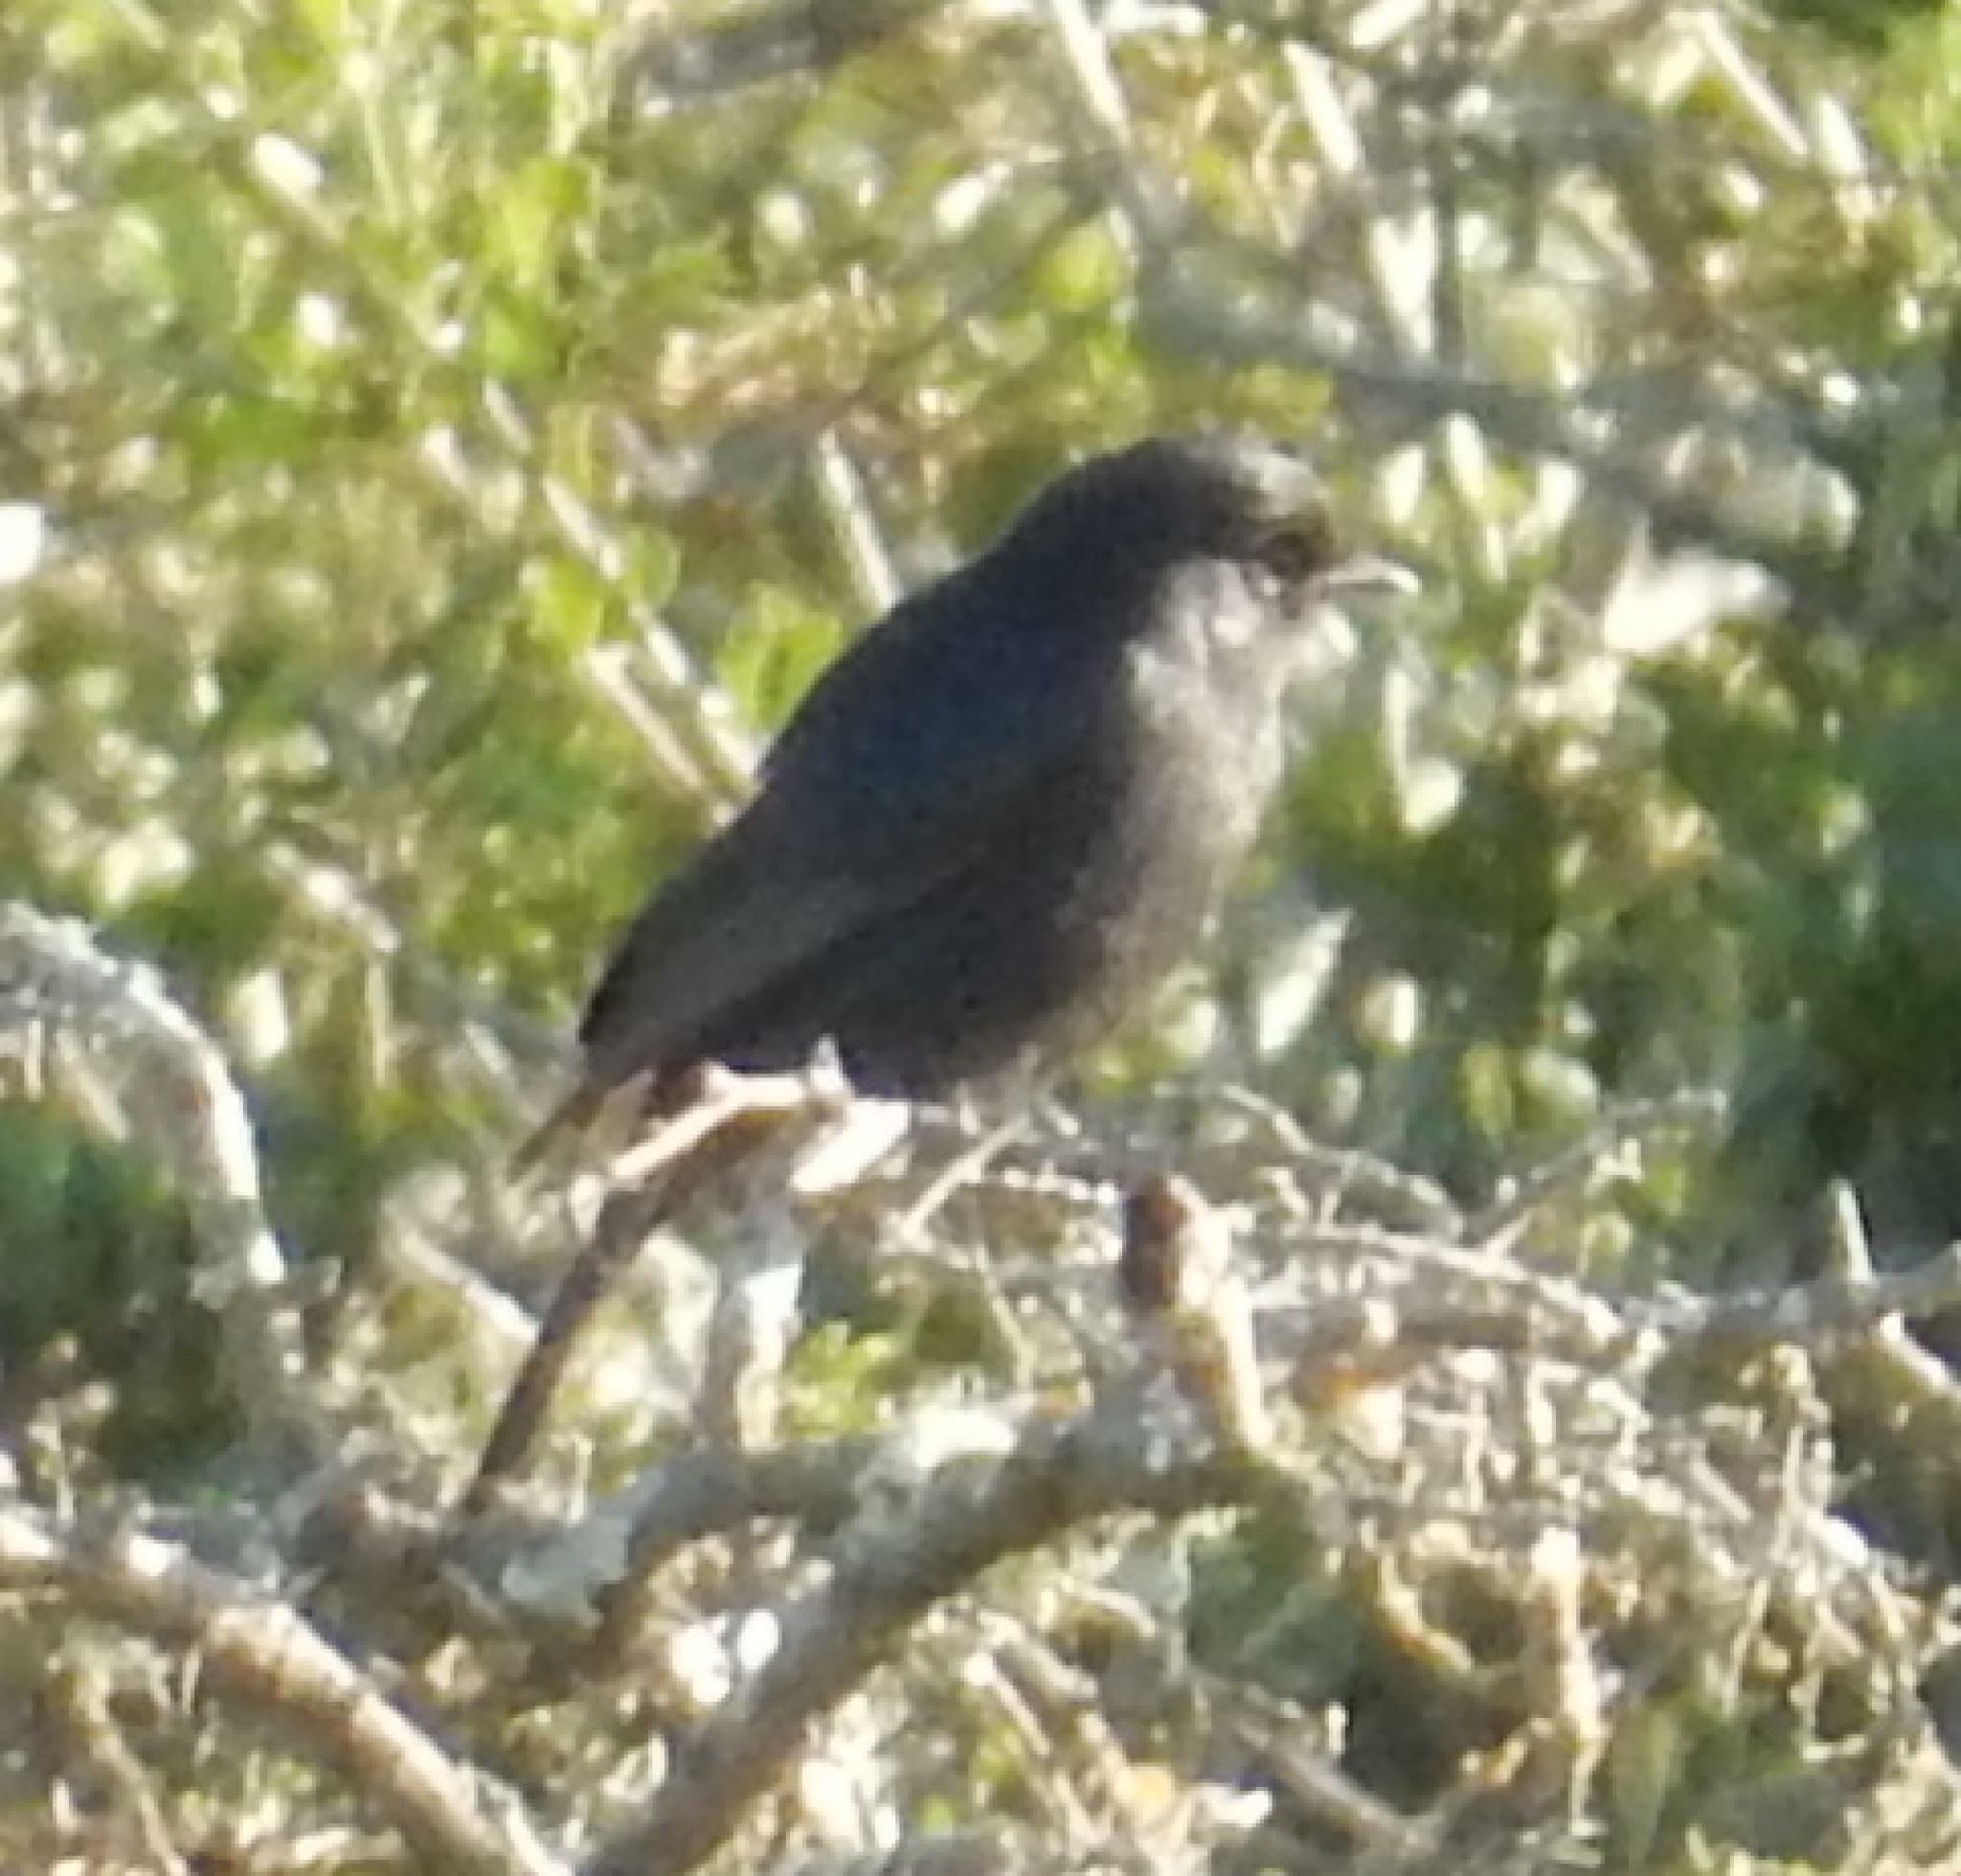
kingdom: Animalia
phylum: Chordata
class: Aves
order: Passeriformes
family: Dicruridae
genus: Dicrurus
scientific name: Dicrurus adsimilis
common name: Fork-tailed drongo
